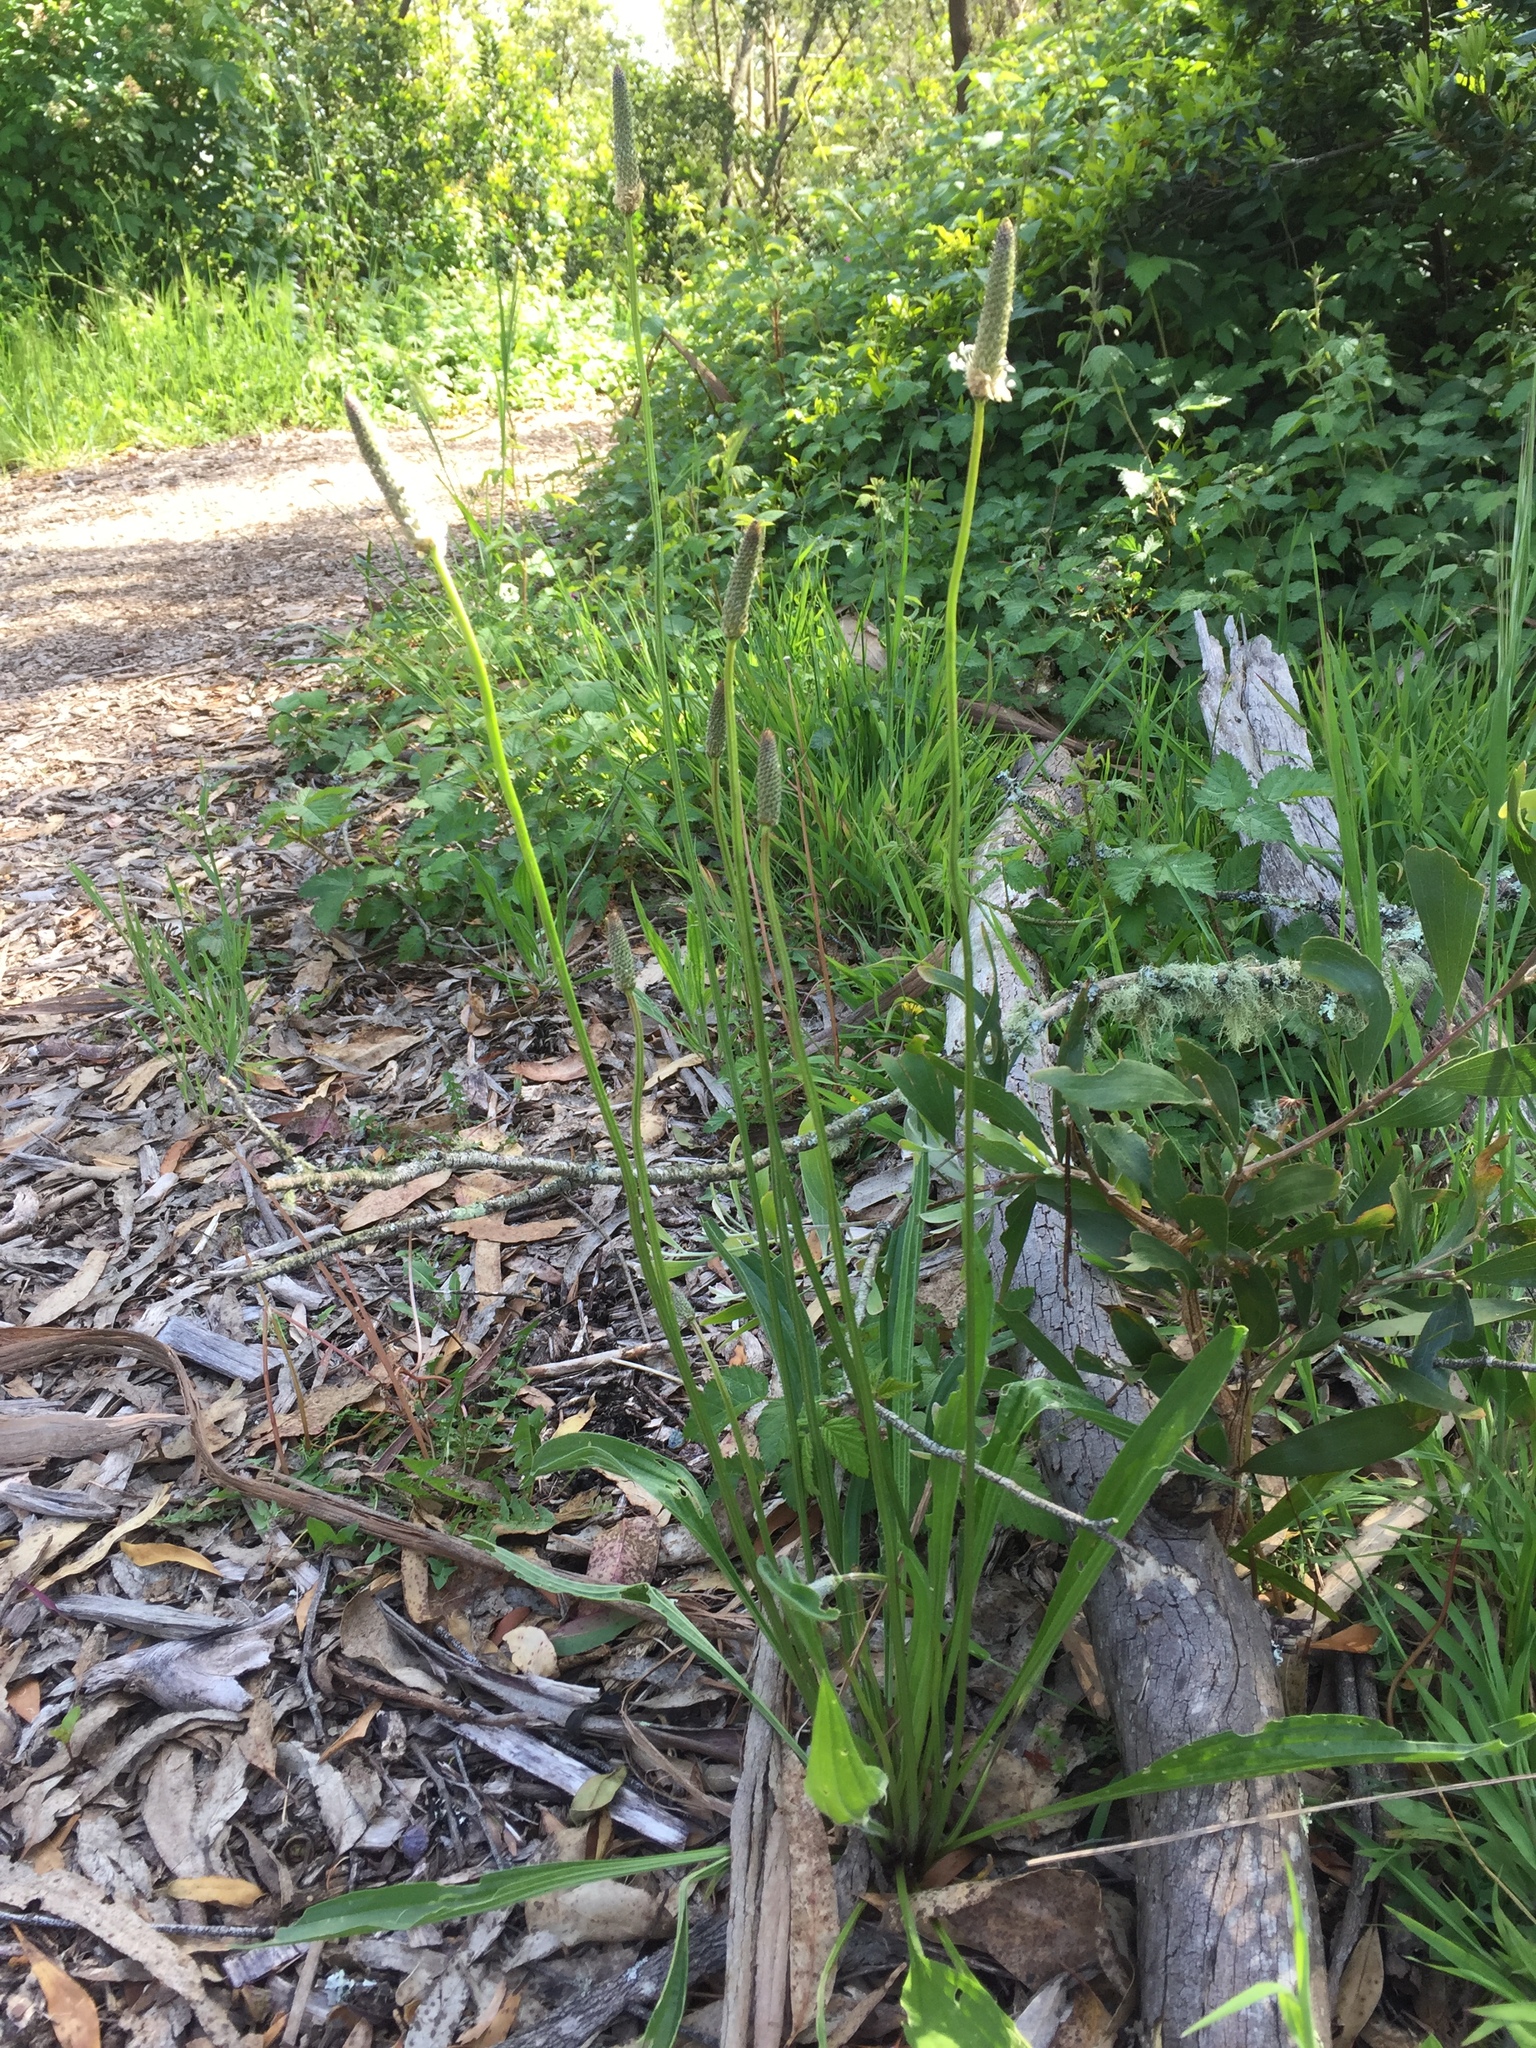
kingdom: Plantae
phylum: Tracheophyta
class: Magnoliopsida
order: Lamiales
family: Plantaginaceae
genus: Plantago
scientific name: Plantago lanceolata
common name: Ribwort plantain
